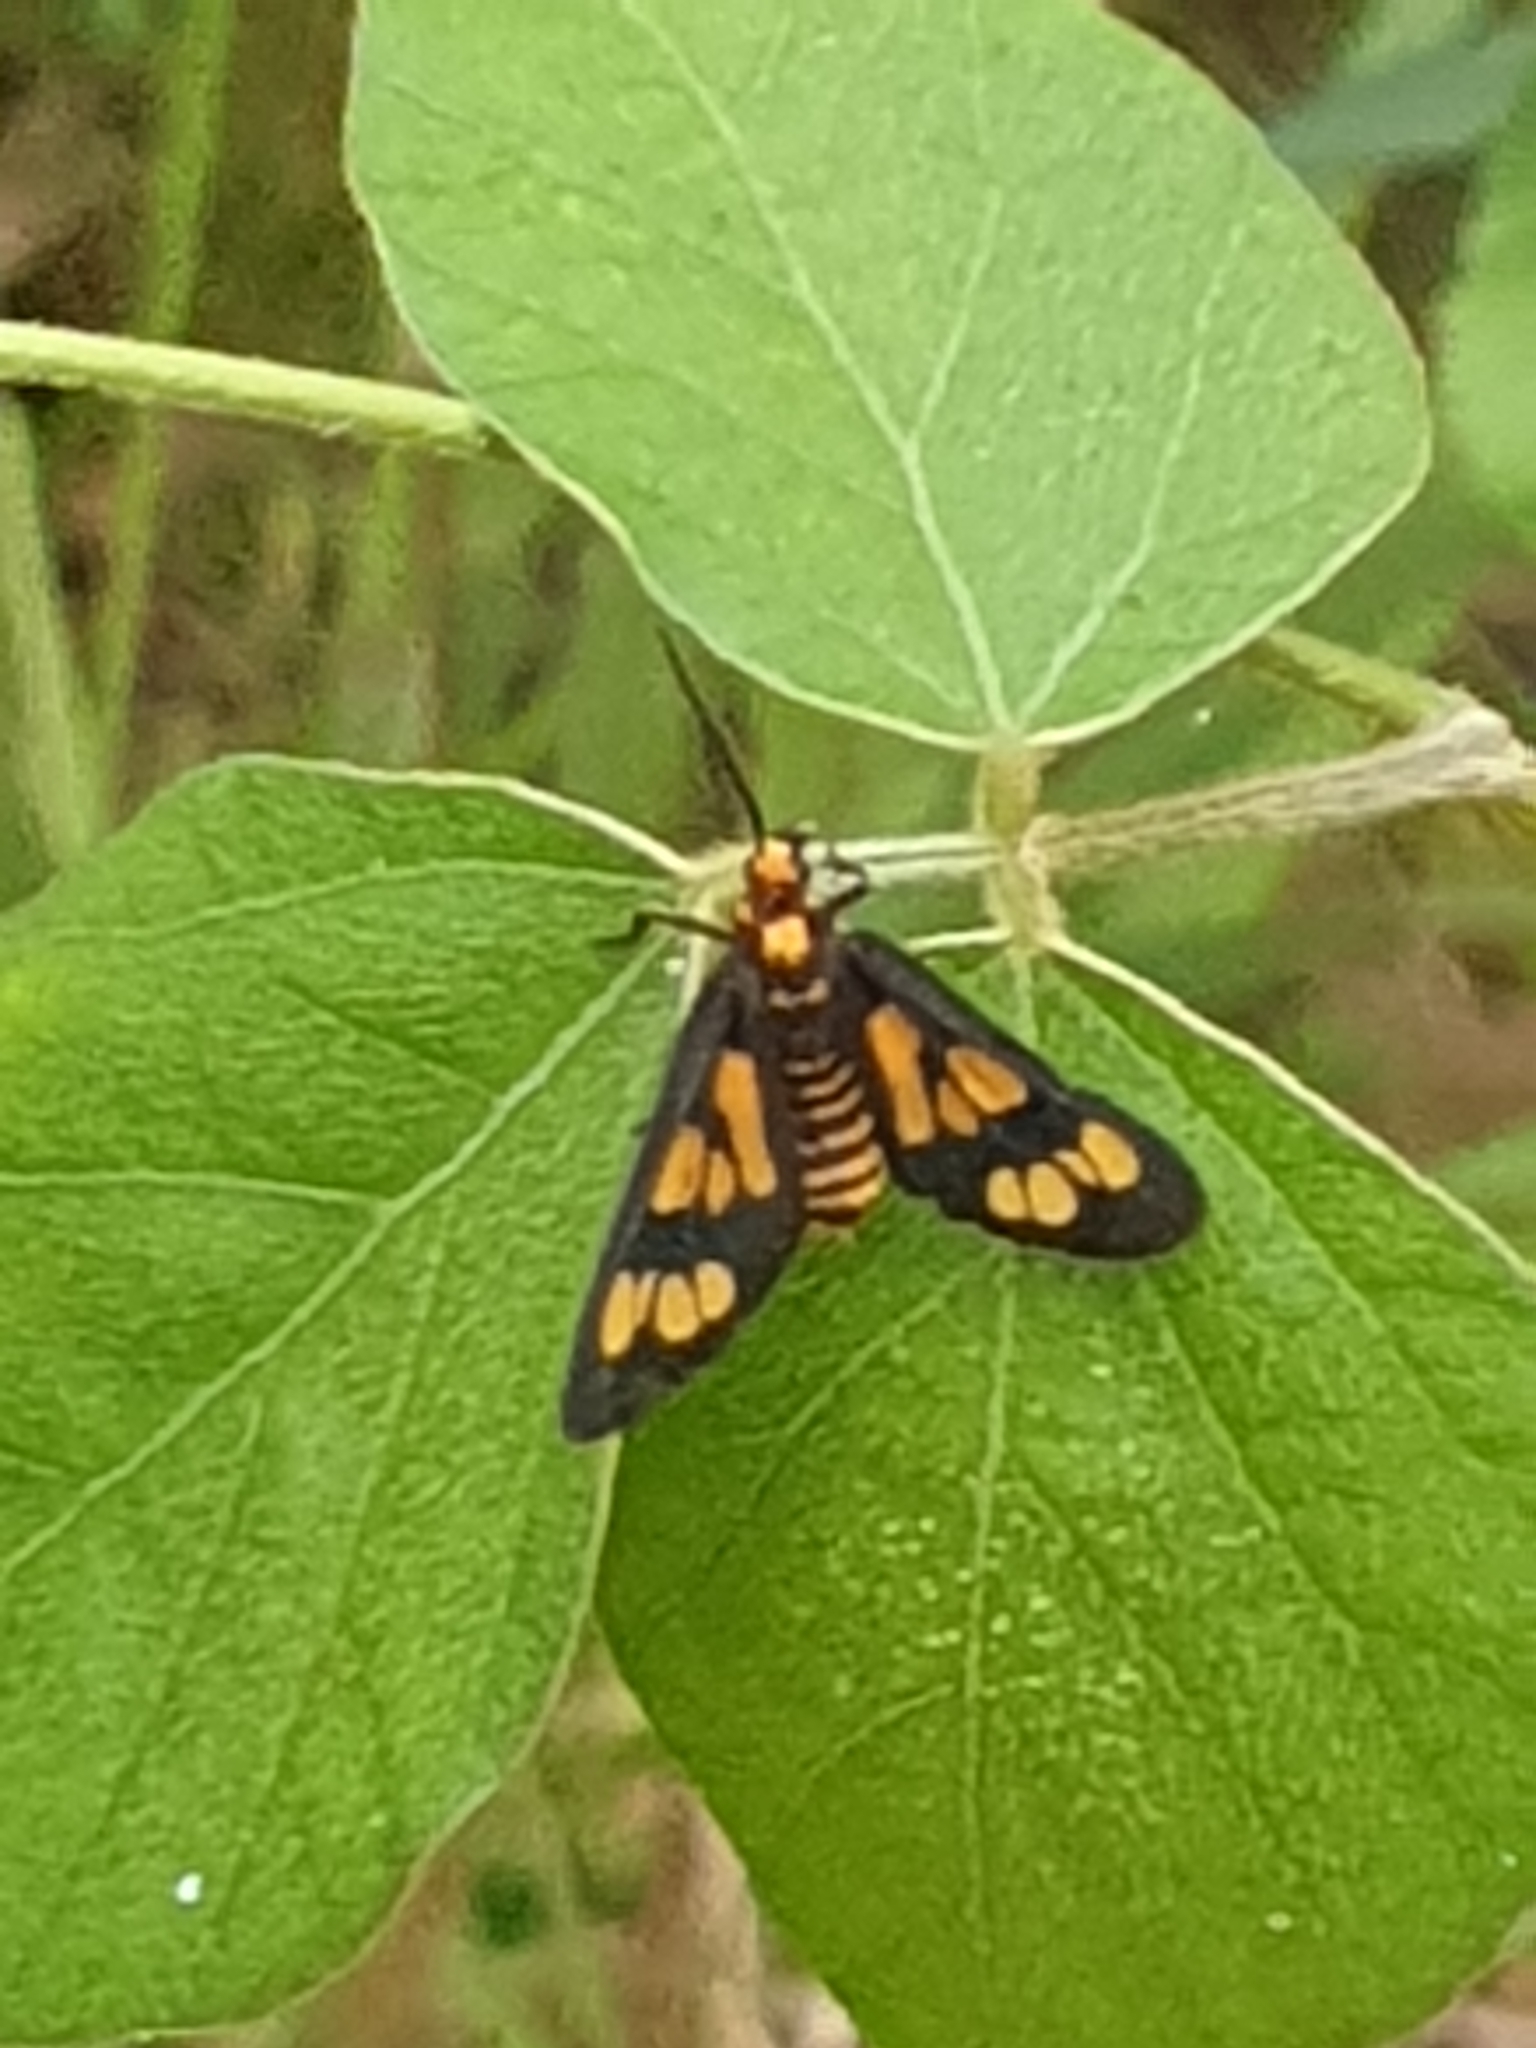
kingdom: Animalia
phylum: Arthropoda
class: Insecta
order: Lepidoptera
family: Erebidae
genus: Eressa
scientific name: Eressa geographica
